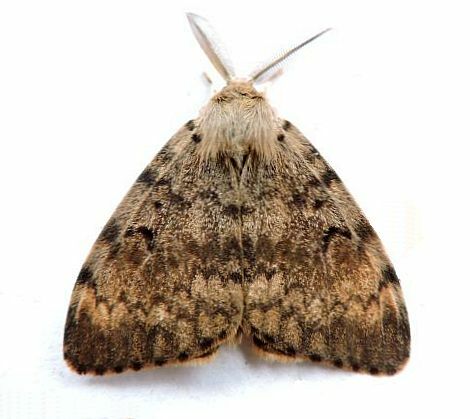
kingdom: Animalia
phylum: Arthropoda
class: Insecta
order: Lepidoptera
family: Erebidae
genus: Lymantria
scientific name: Lymantria dispar
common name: Gypsy moth
